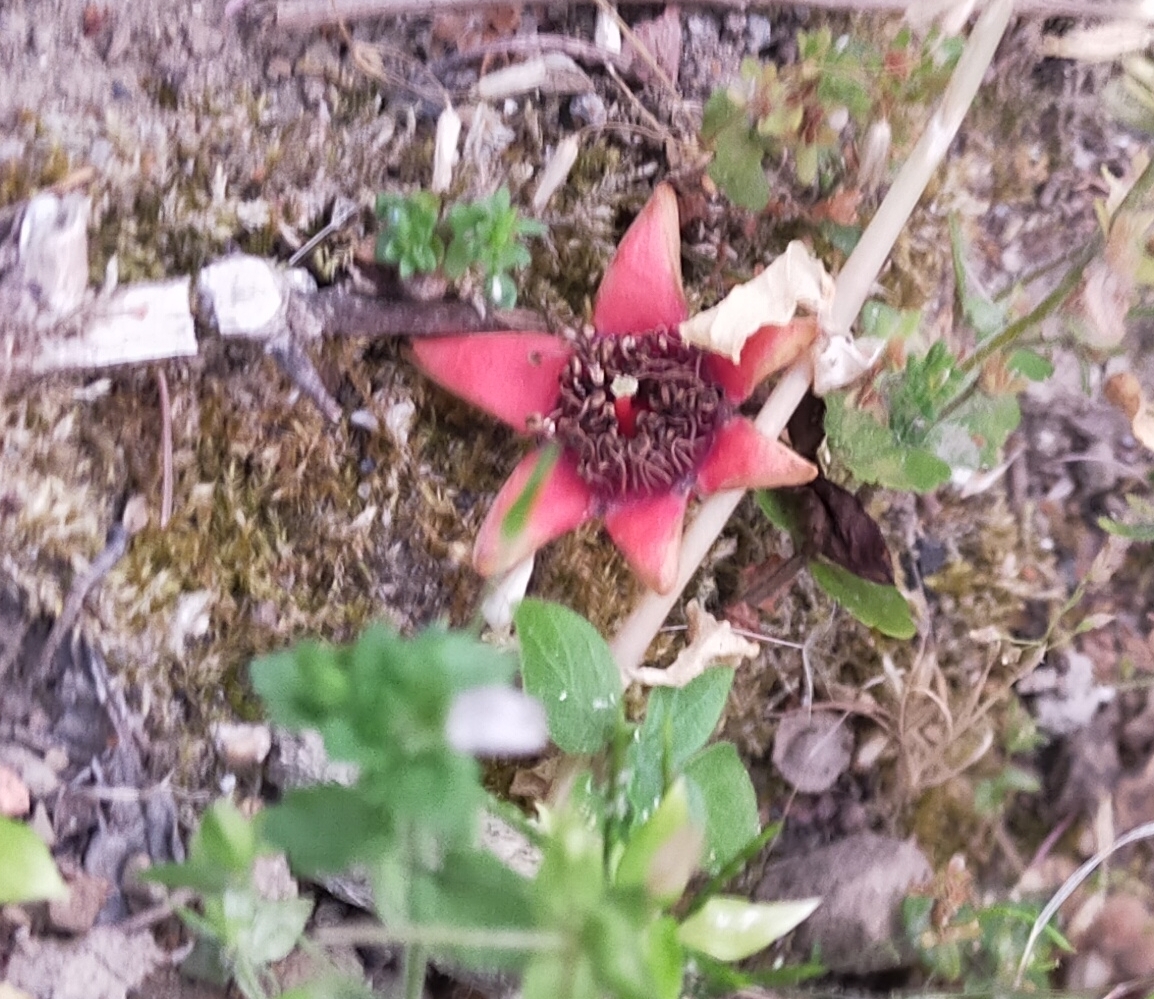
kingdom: Plantae
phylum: Tracheophyta
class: Magnoliopsida
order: Myrtales
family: Lythraceae
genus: Punica
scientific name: Punica granatum
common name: Pomegranate
